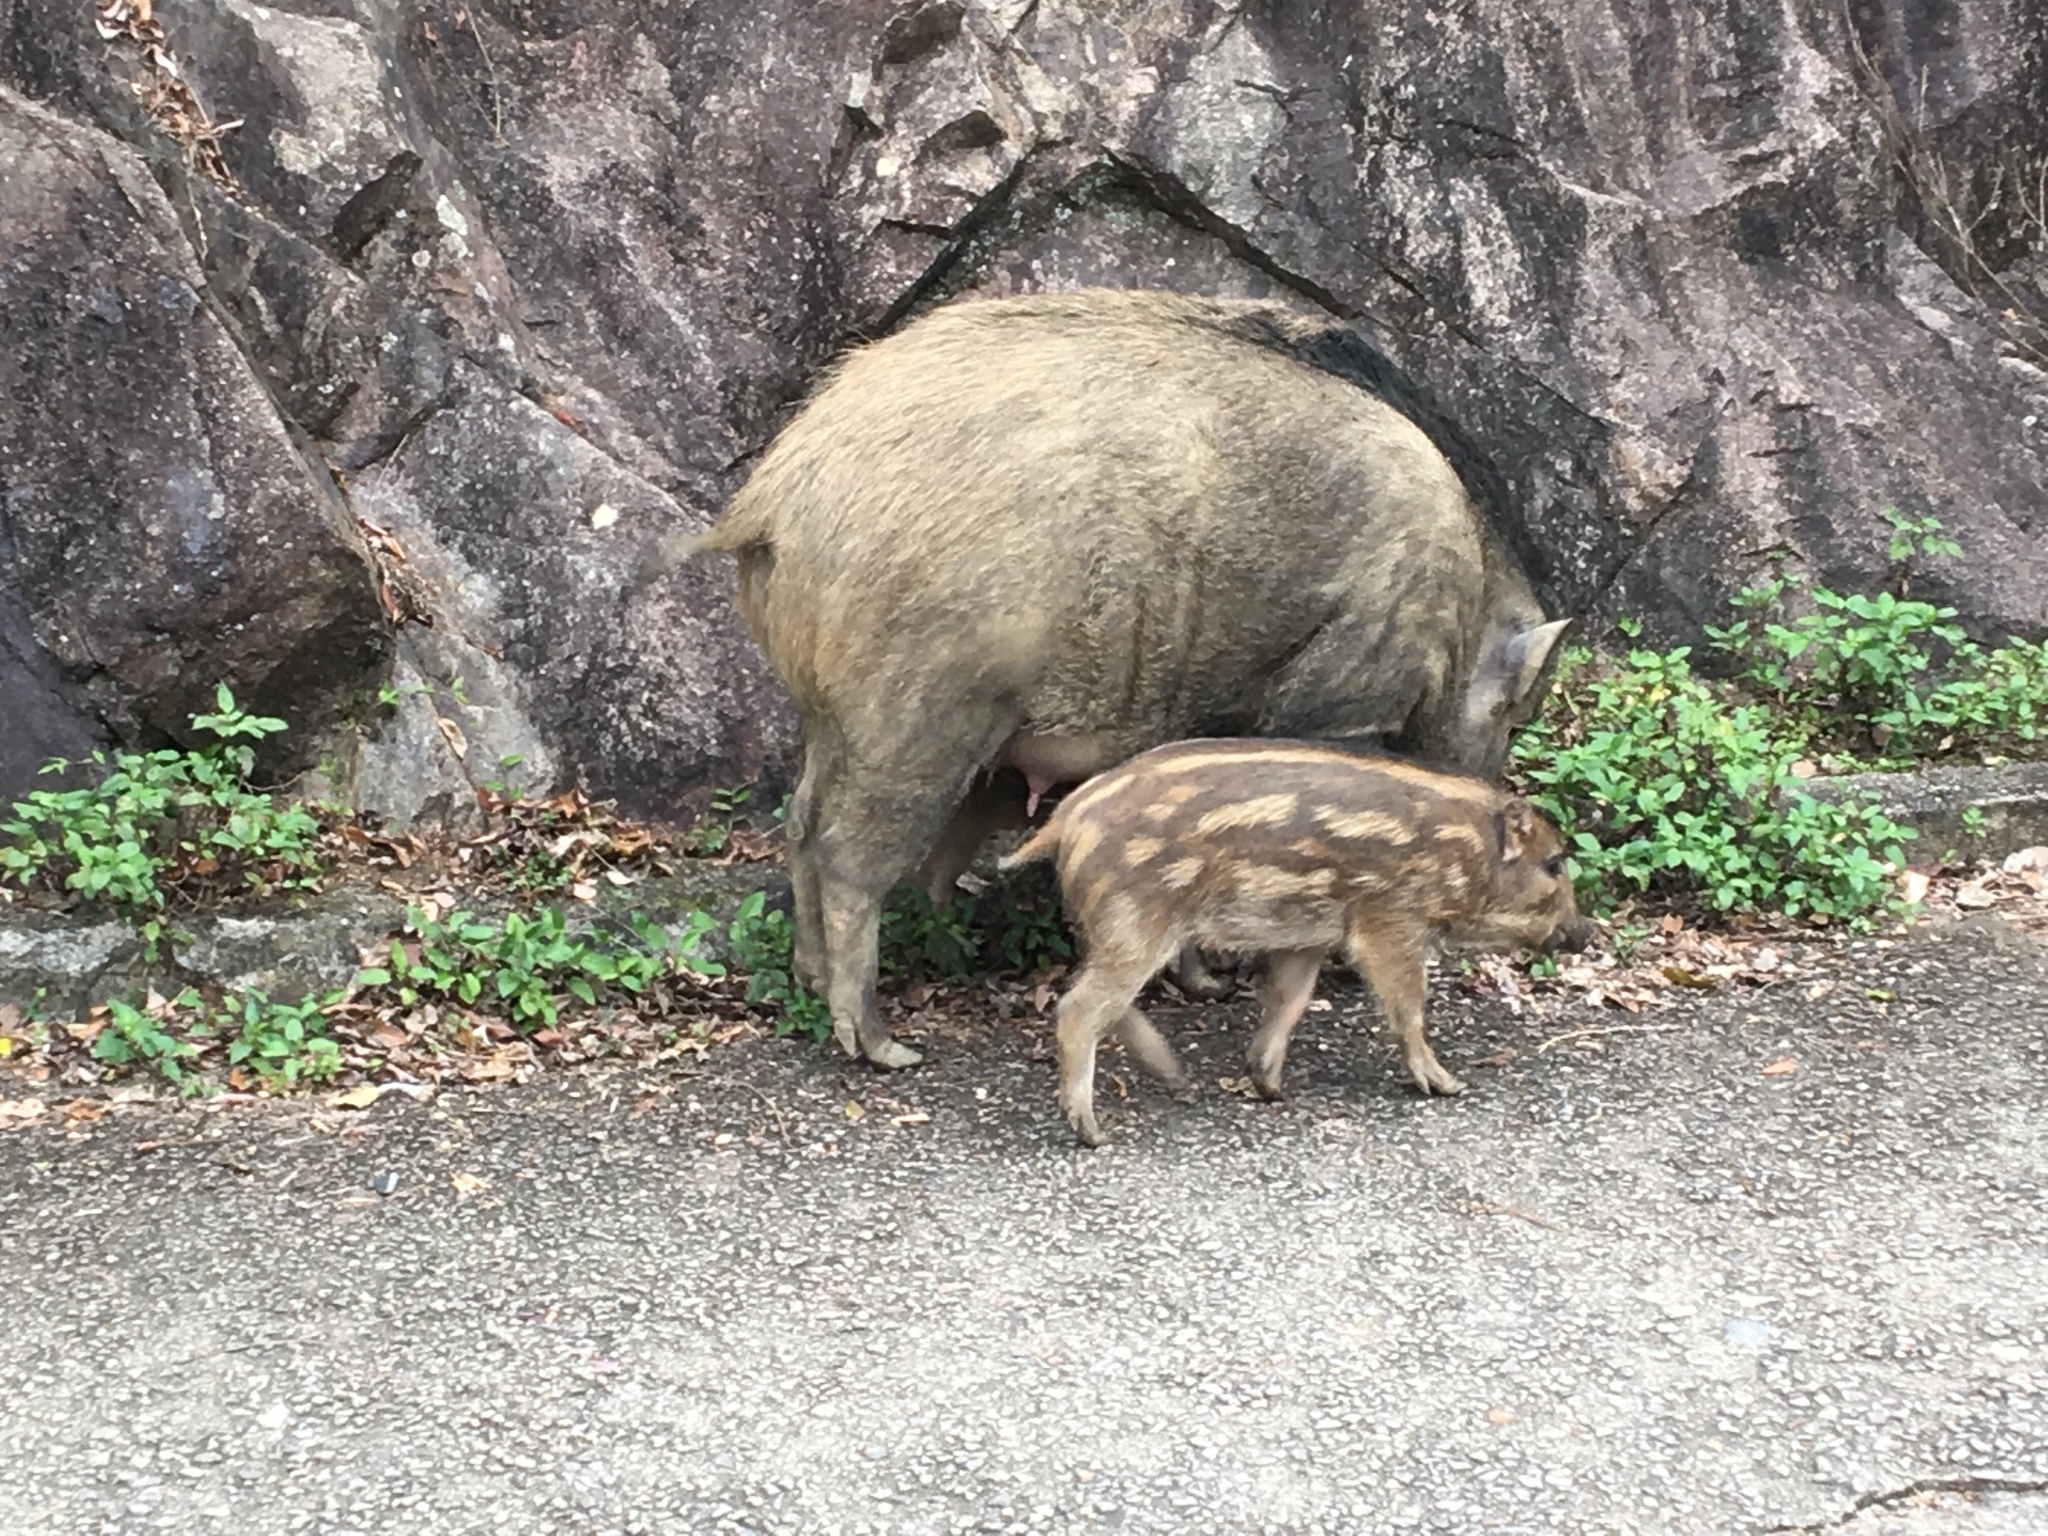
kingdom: Animalia
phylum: Chordata
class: Mammalia
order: Artiodactyla
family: Suidae
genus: Sus
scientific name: Sus scrofa
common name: Wild boar
